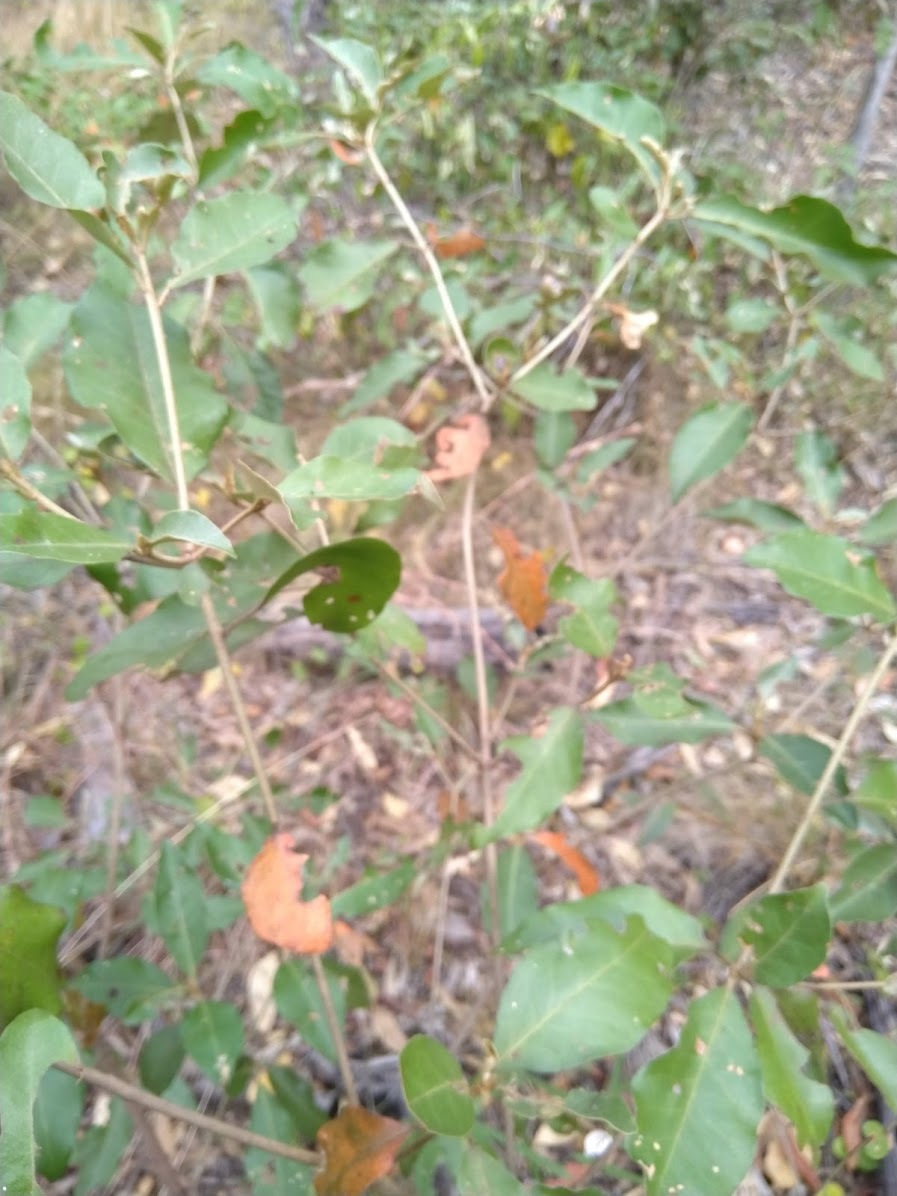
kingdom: Plantae
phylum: Tracheophyta
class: Magnoliopsida
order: Malpighiales
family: Euphorbiaceae
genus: Croton
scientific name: Croton insularis
